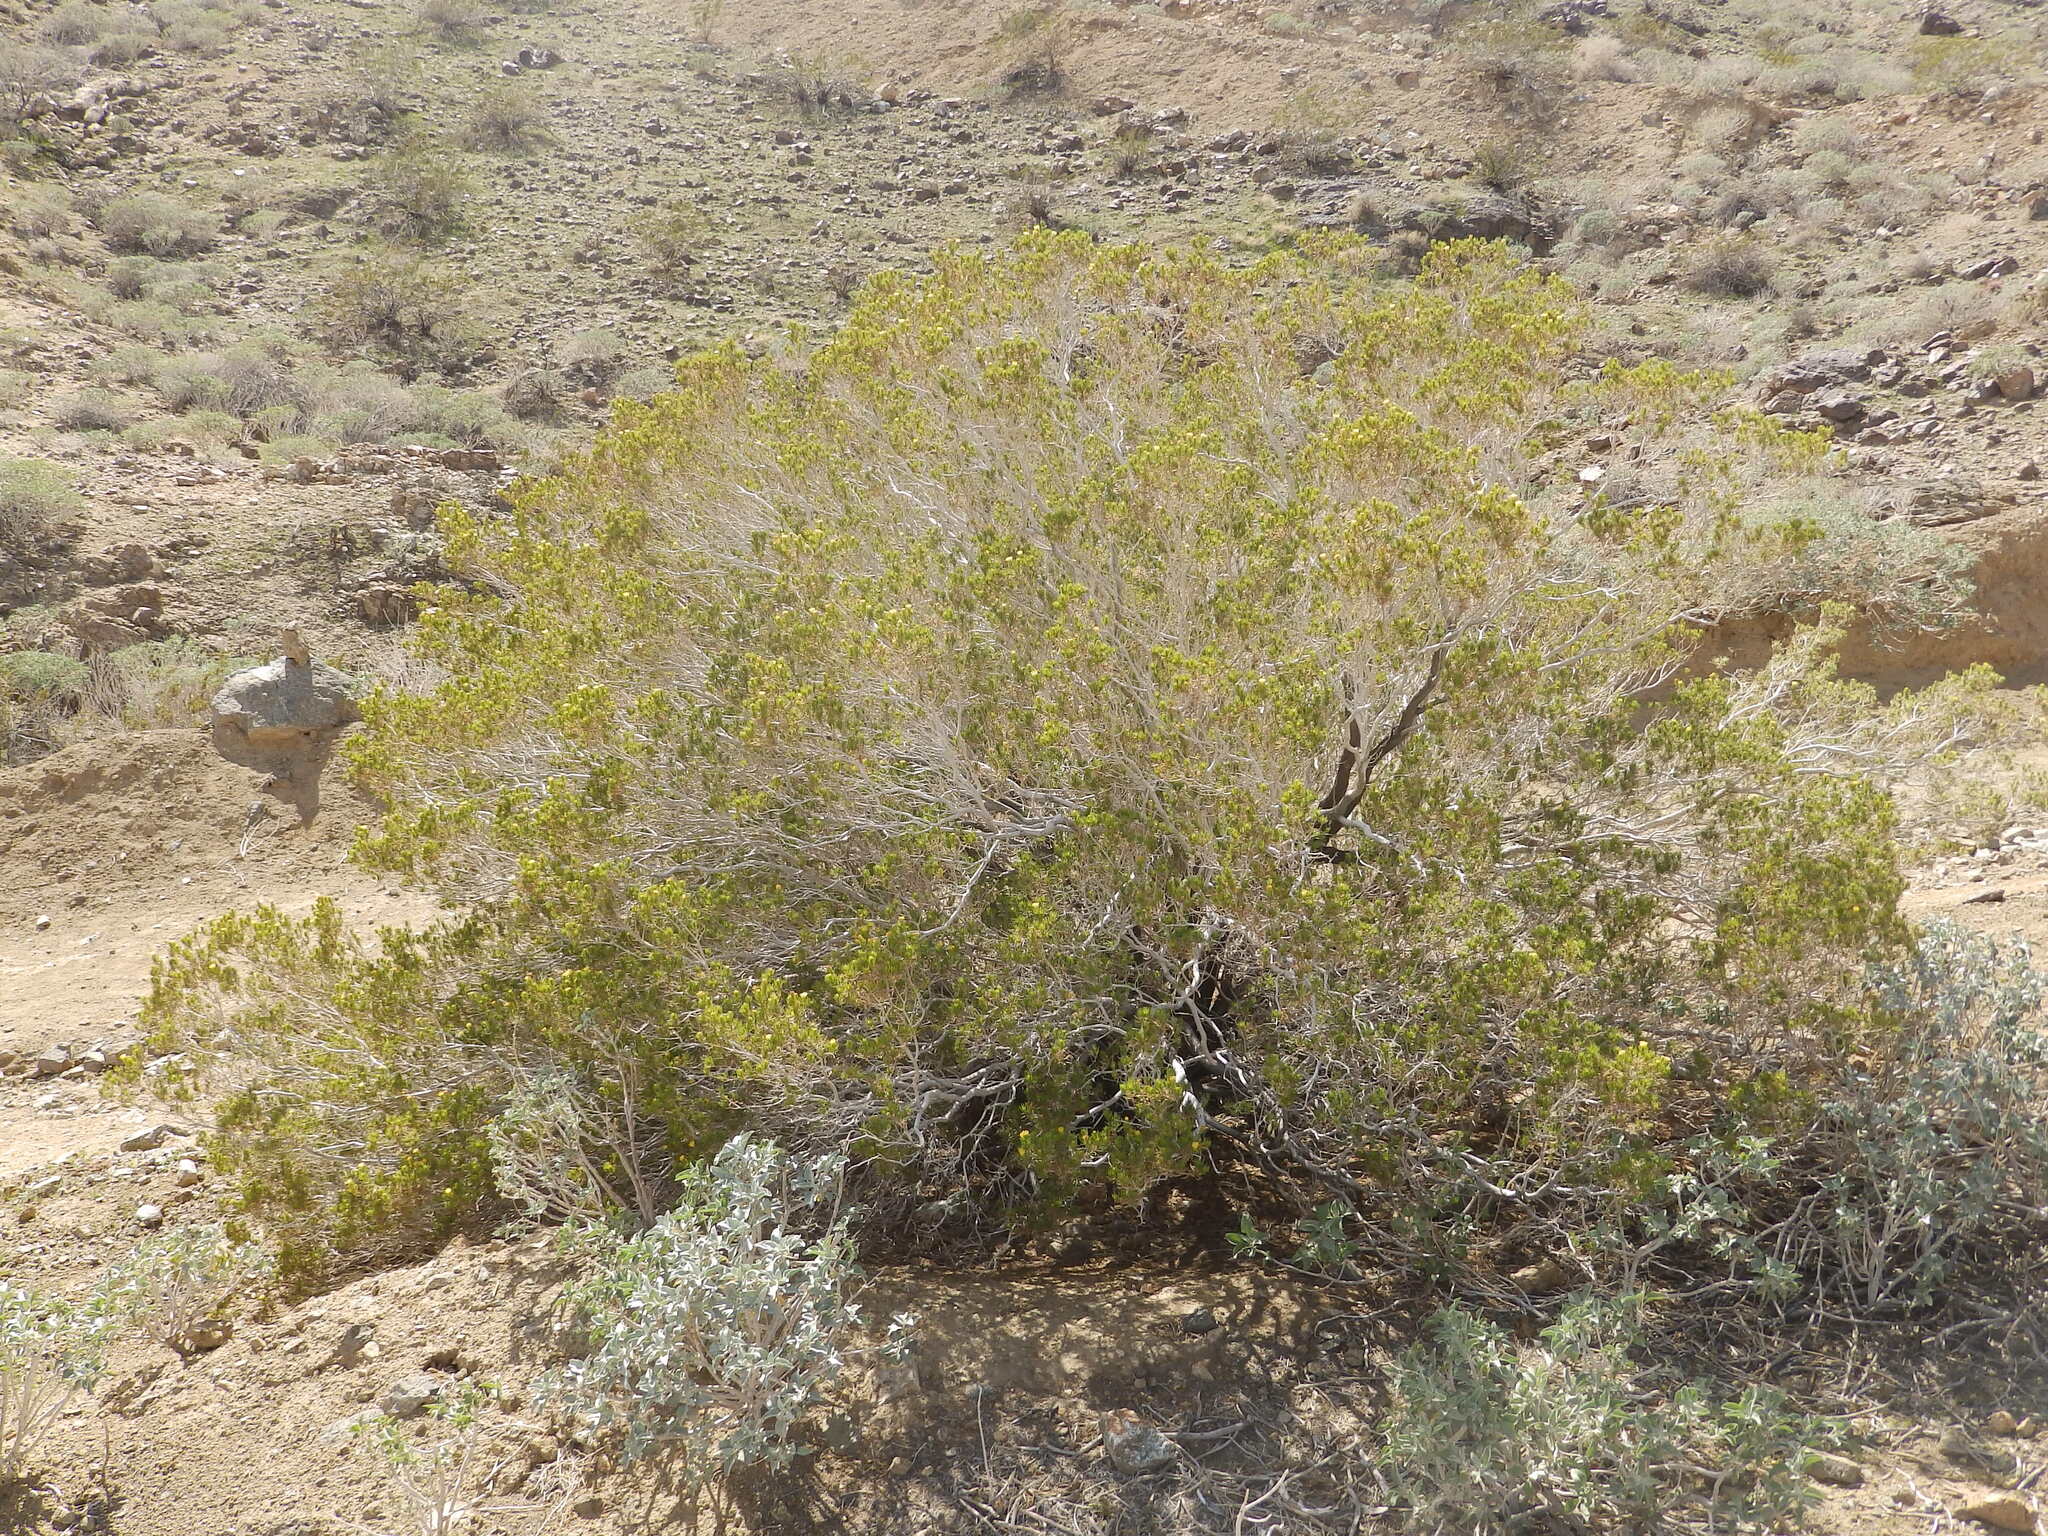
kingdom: Plantae
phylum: Tracheophyta
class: Magnoliopsida
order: Asterales
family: Asteraceae
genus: Peucephyllum
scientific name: Peucephyllum schottii
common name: Pygmy-cedar
